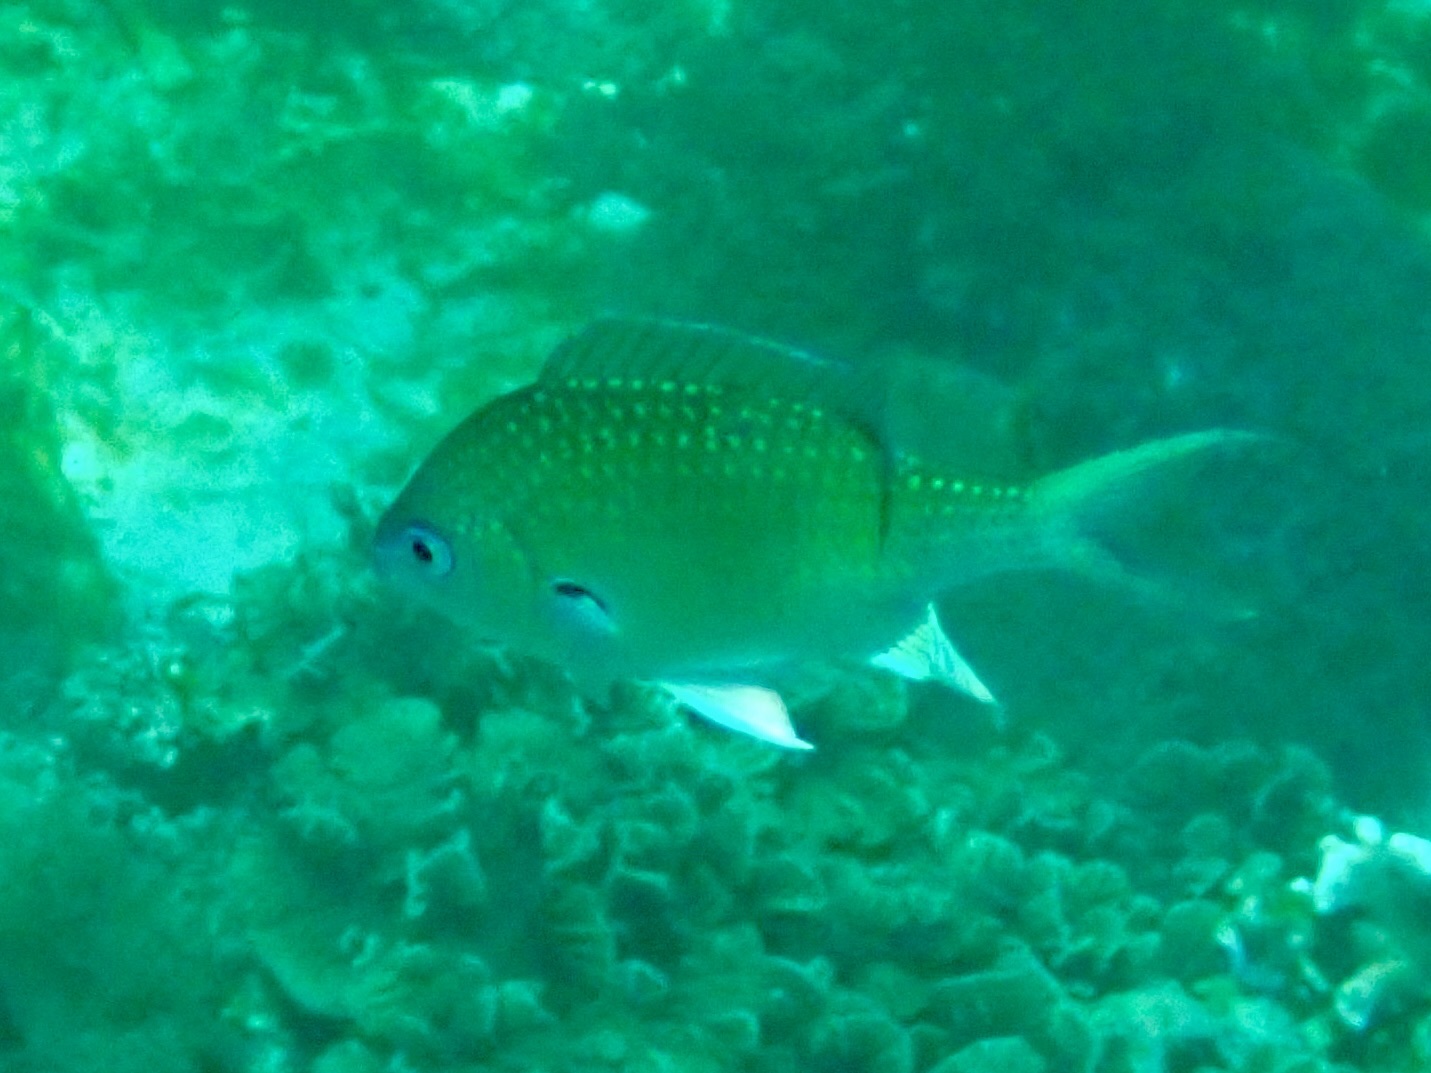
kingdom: Animalia
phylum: Chordata
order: Perciformes
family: Pomacentridae
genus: Chromis
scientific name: Chromis atripectoralis
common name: Black-axil chromis
